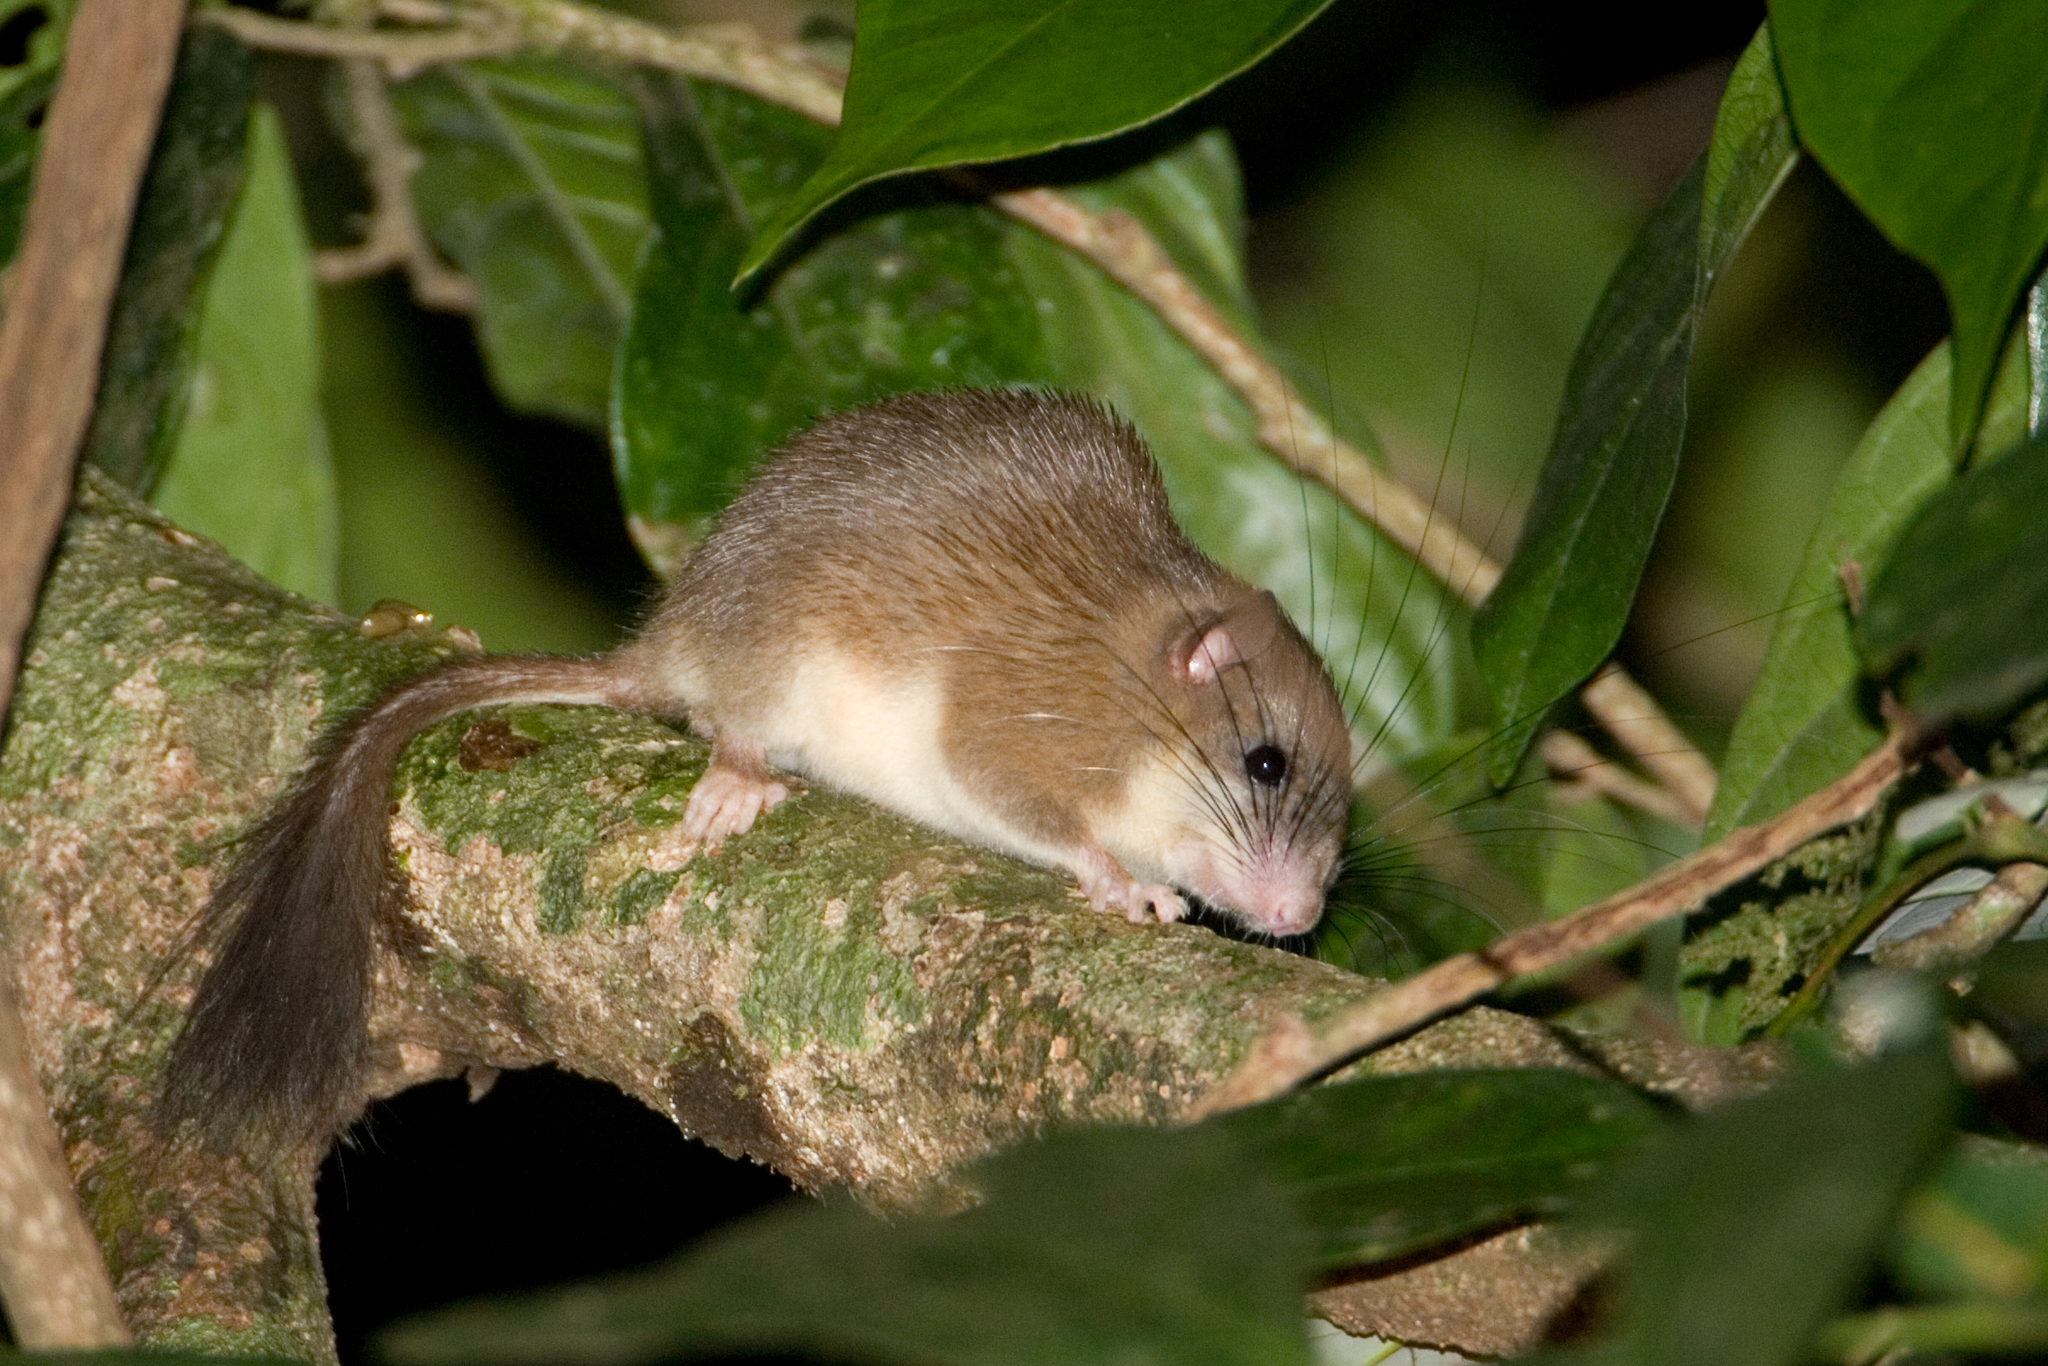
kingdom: Animalia
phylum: Chordata
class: Mammalia
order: Rodentia
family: Platacanthomyidae
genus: Platacanthomys
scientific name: Platacanthomys lasiurus
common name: Malabar spiny dormouse
